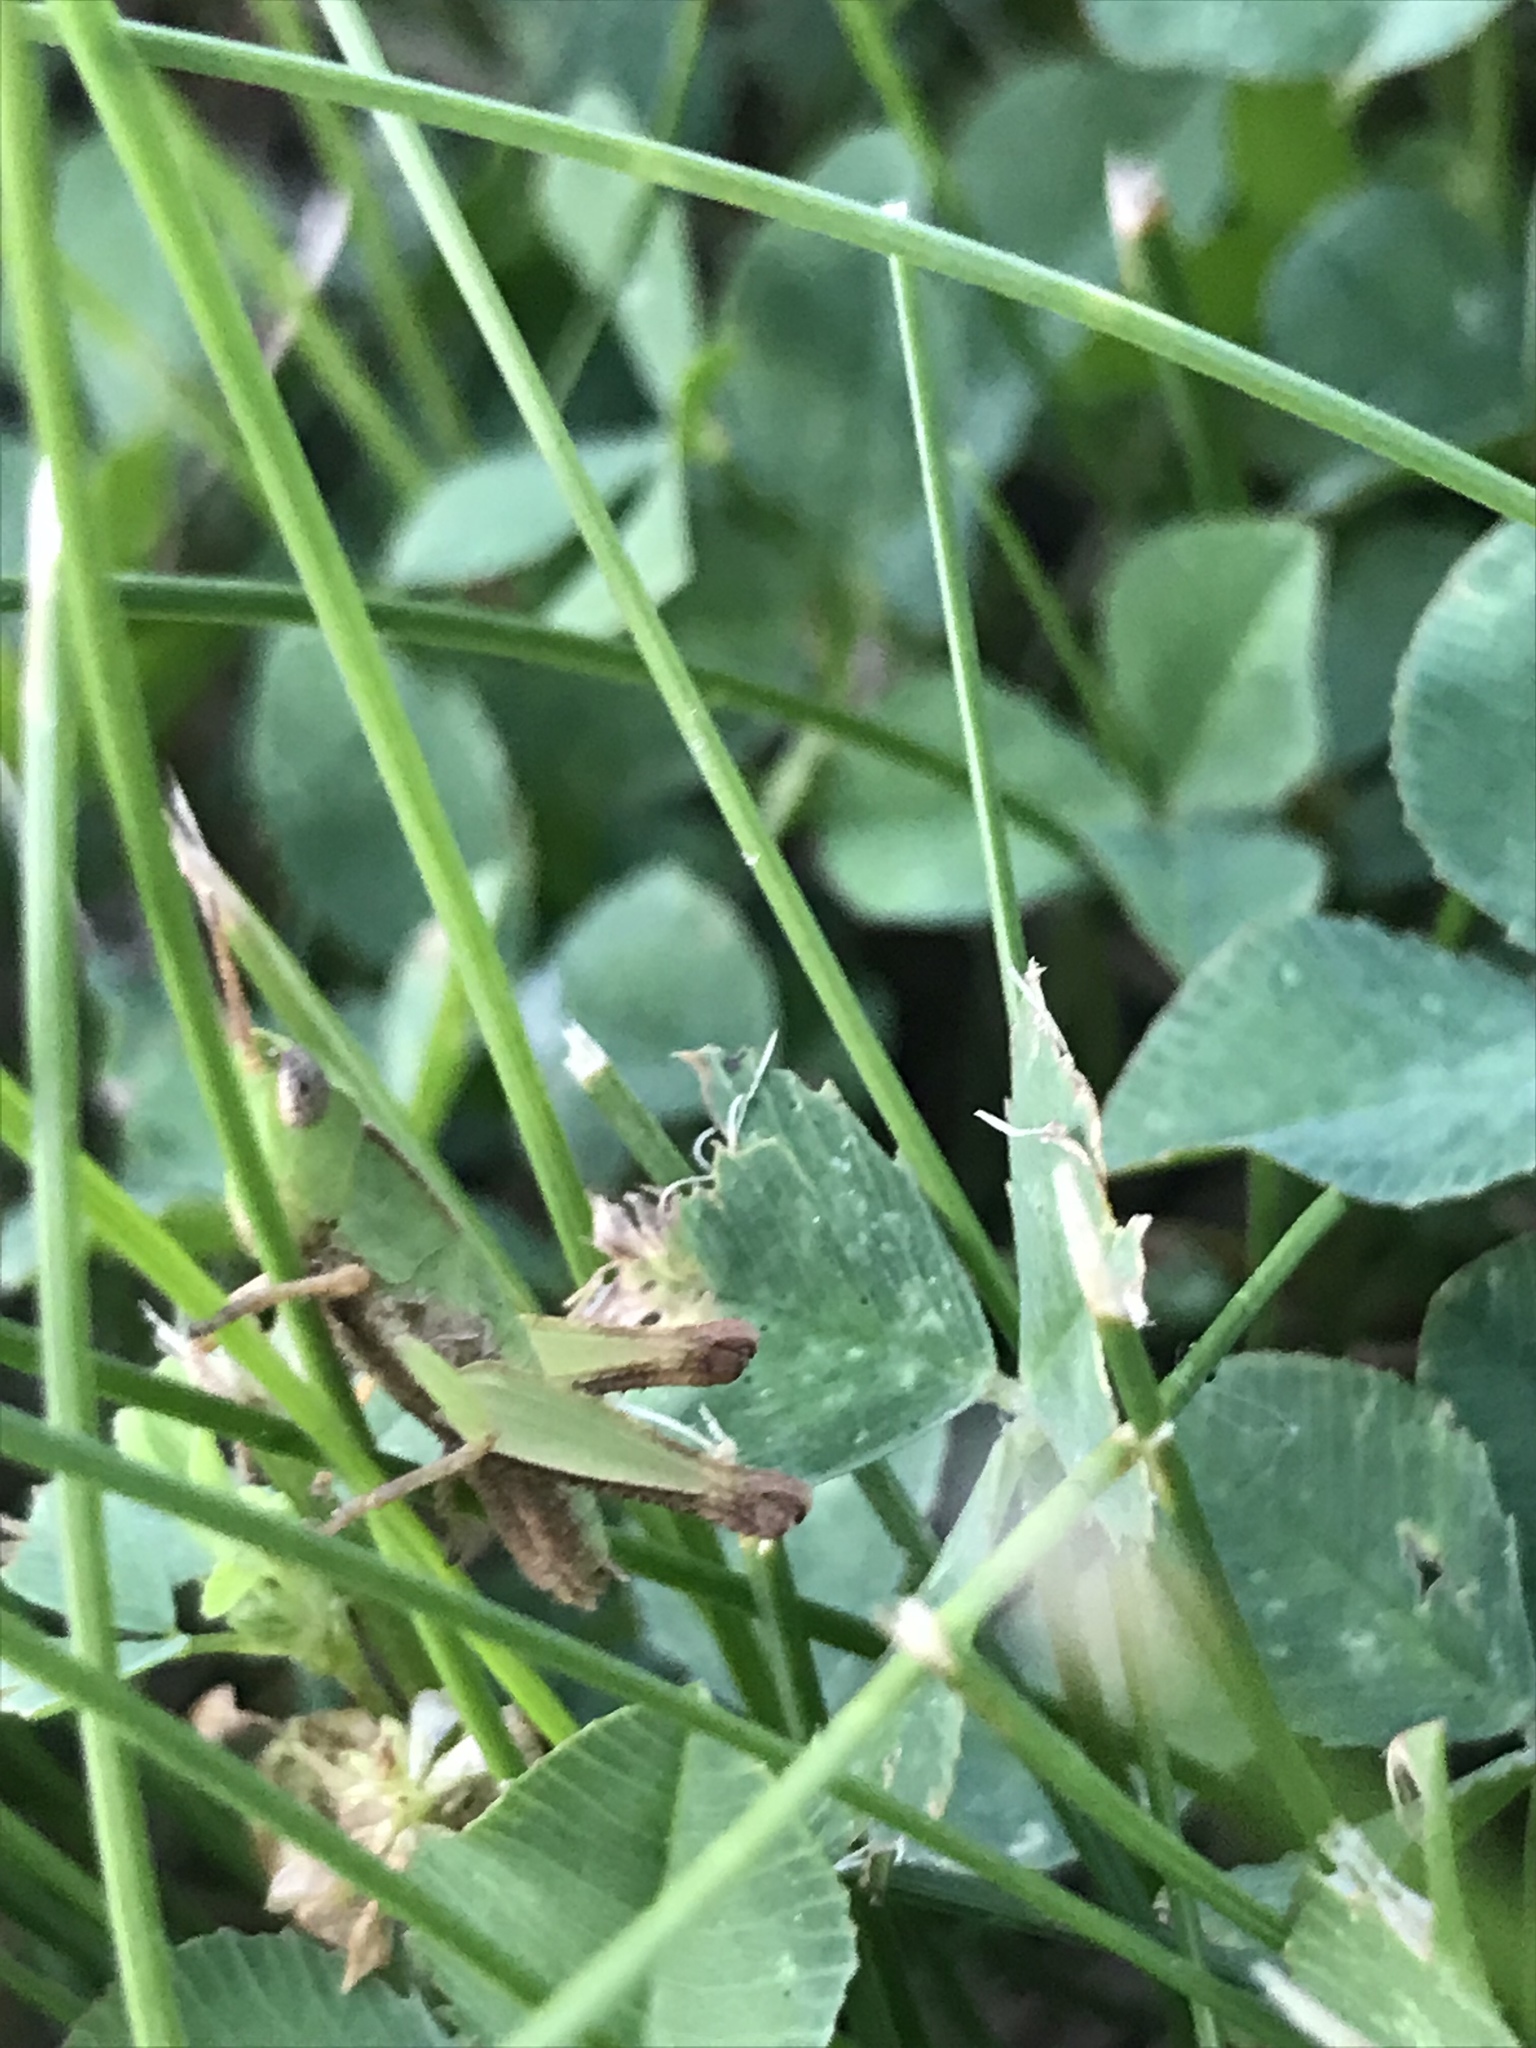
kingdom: Animalia
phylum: Arthropoda
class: Insecta
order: Orthoptera
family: Acrididae
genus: Dichromorpha
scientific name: Dichromorpha viridis
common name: Short-winged green grasshopper
